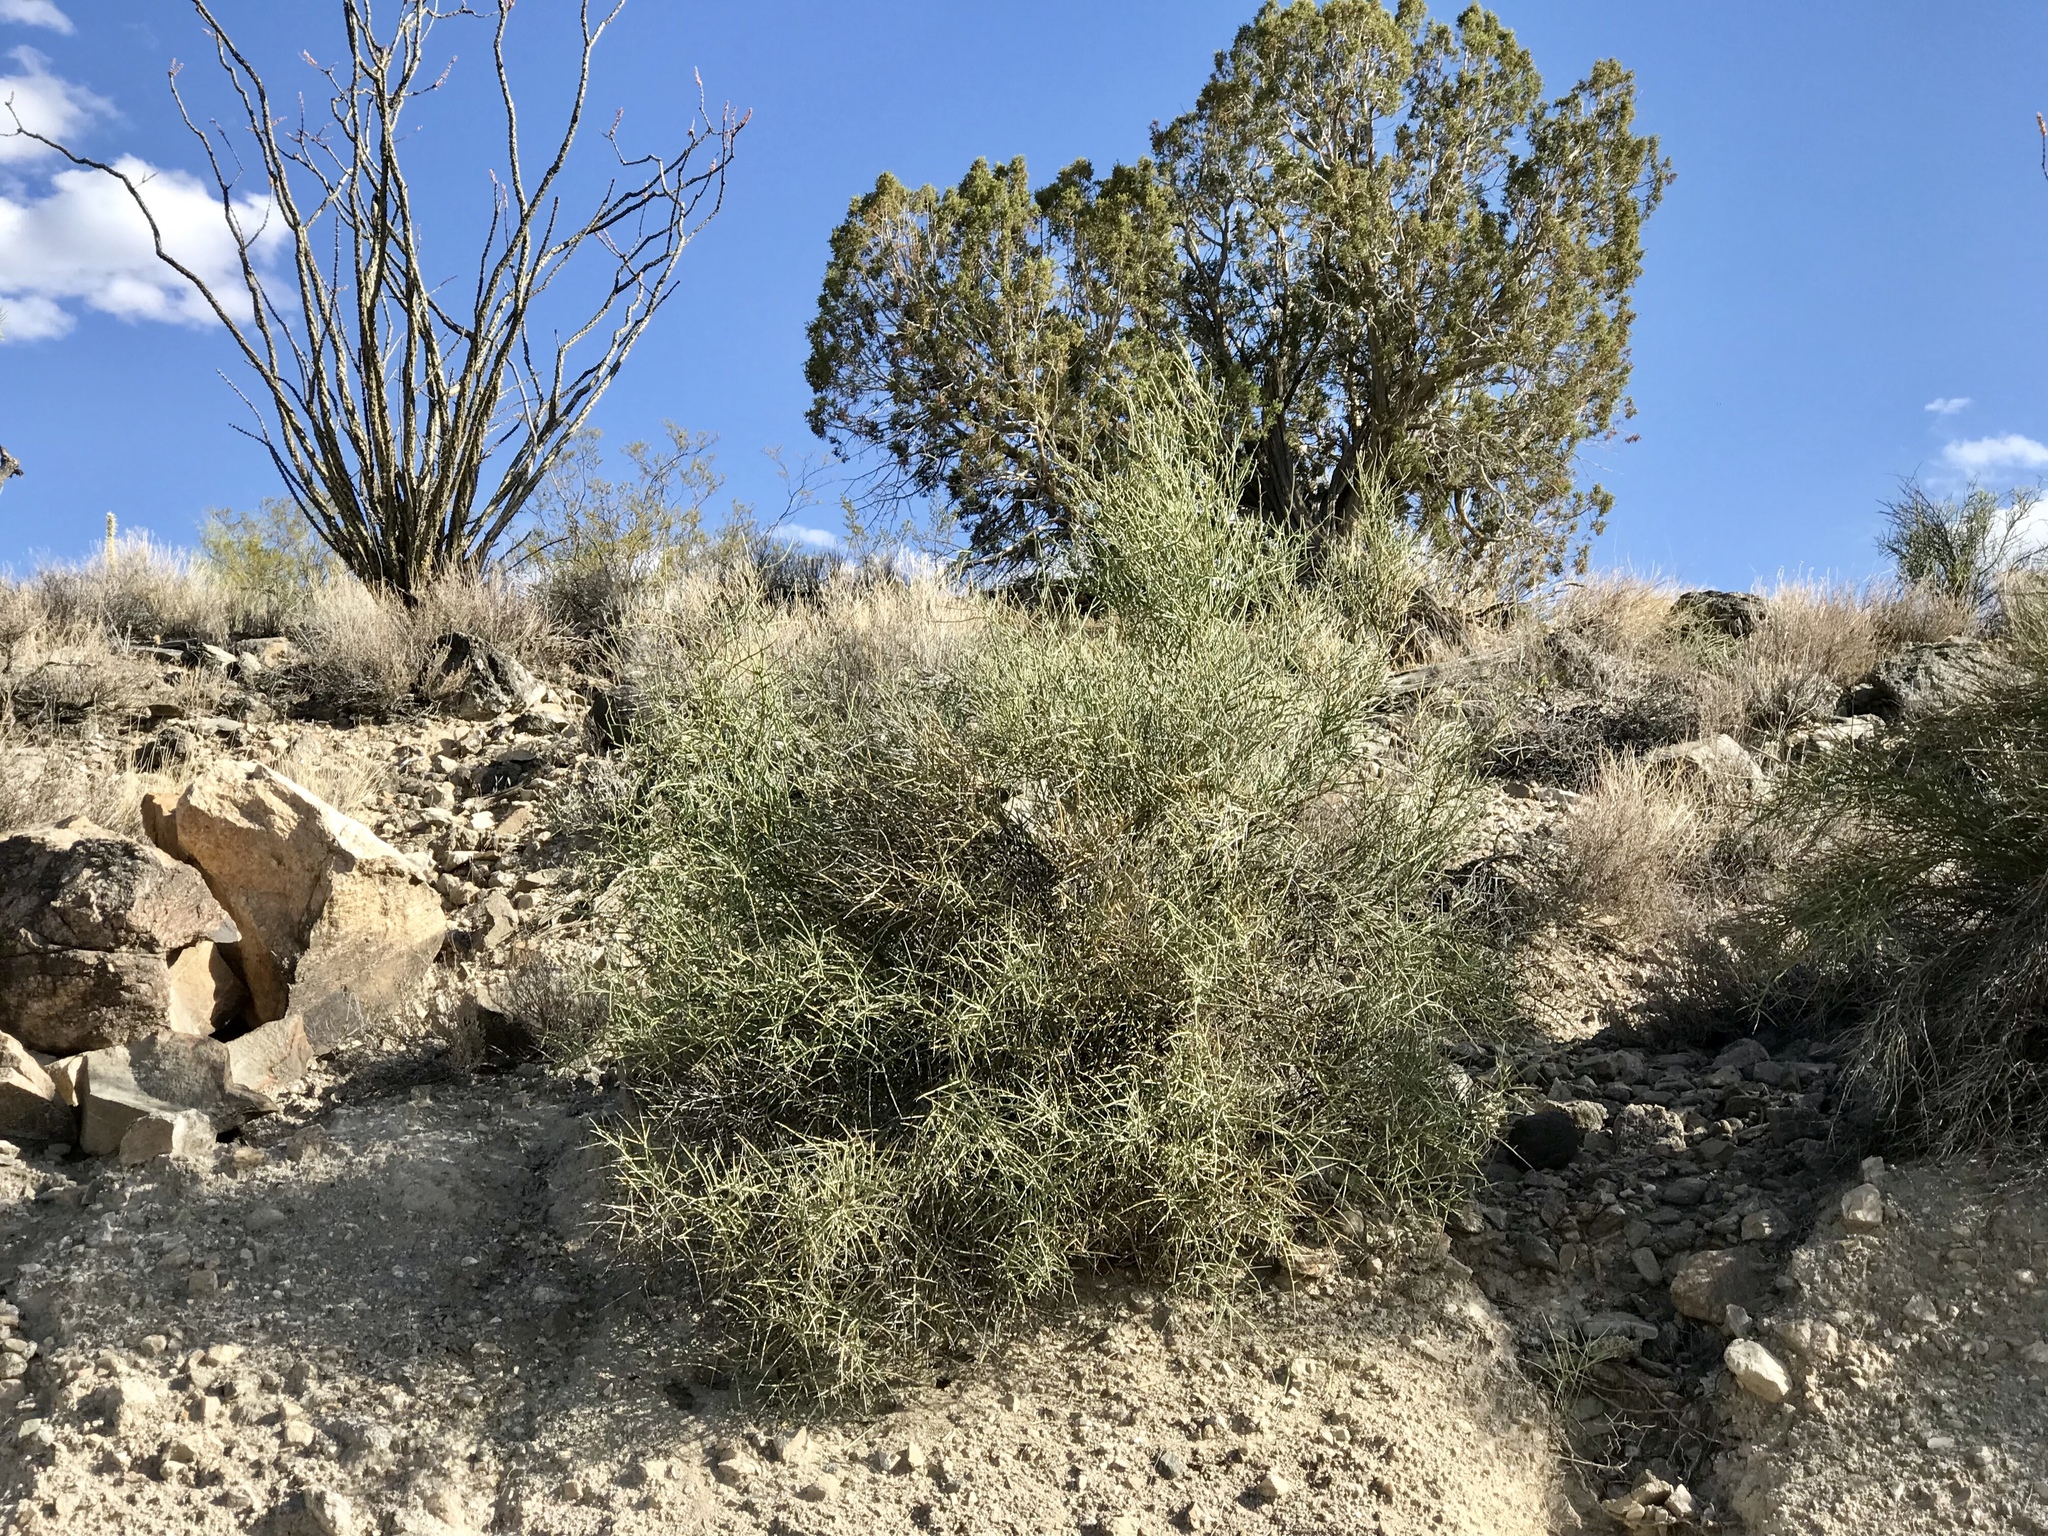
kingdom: Plantae
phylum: Tracheophyta
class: Magnoliopsida
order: Celastrales
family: Celastraceae
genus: Canotia
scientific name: Canotia holacantha
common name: Crucifixion thorns
